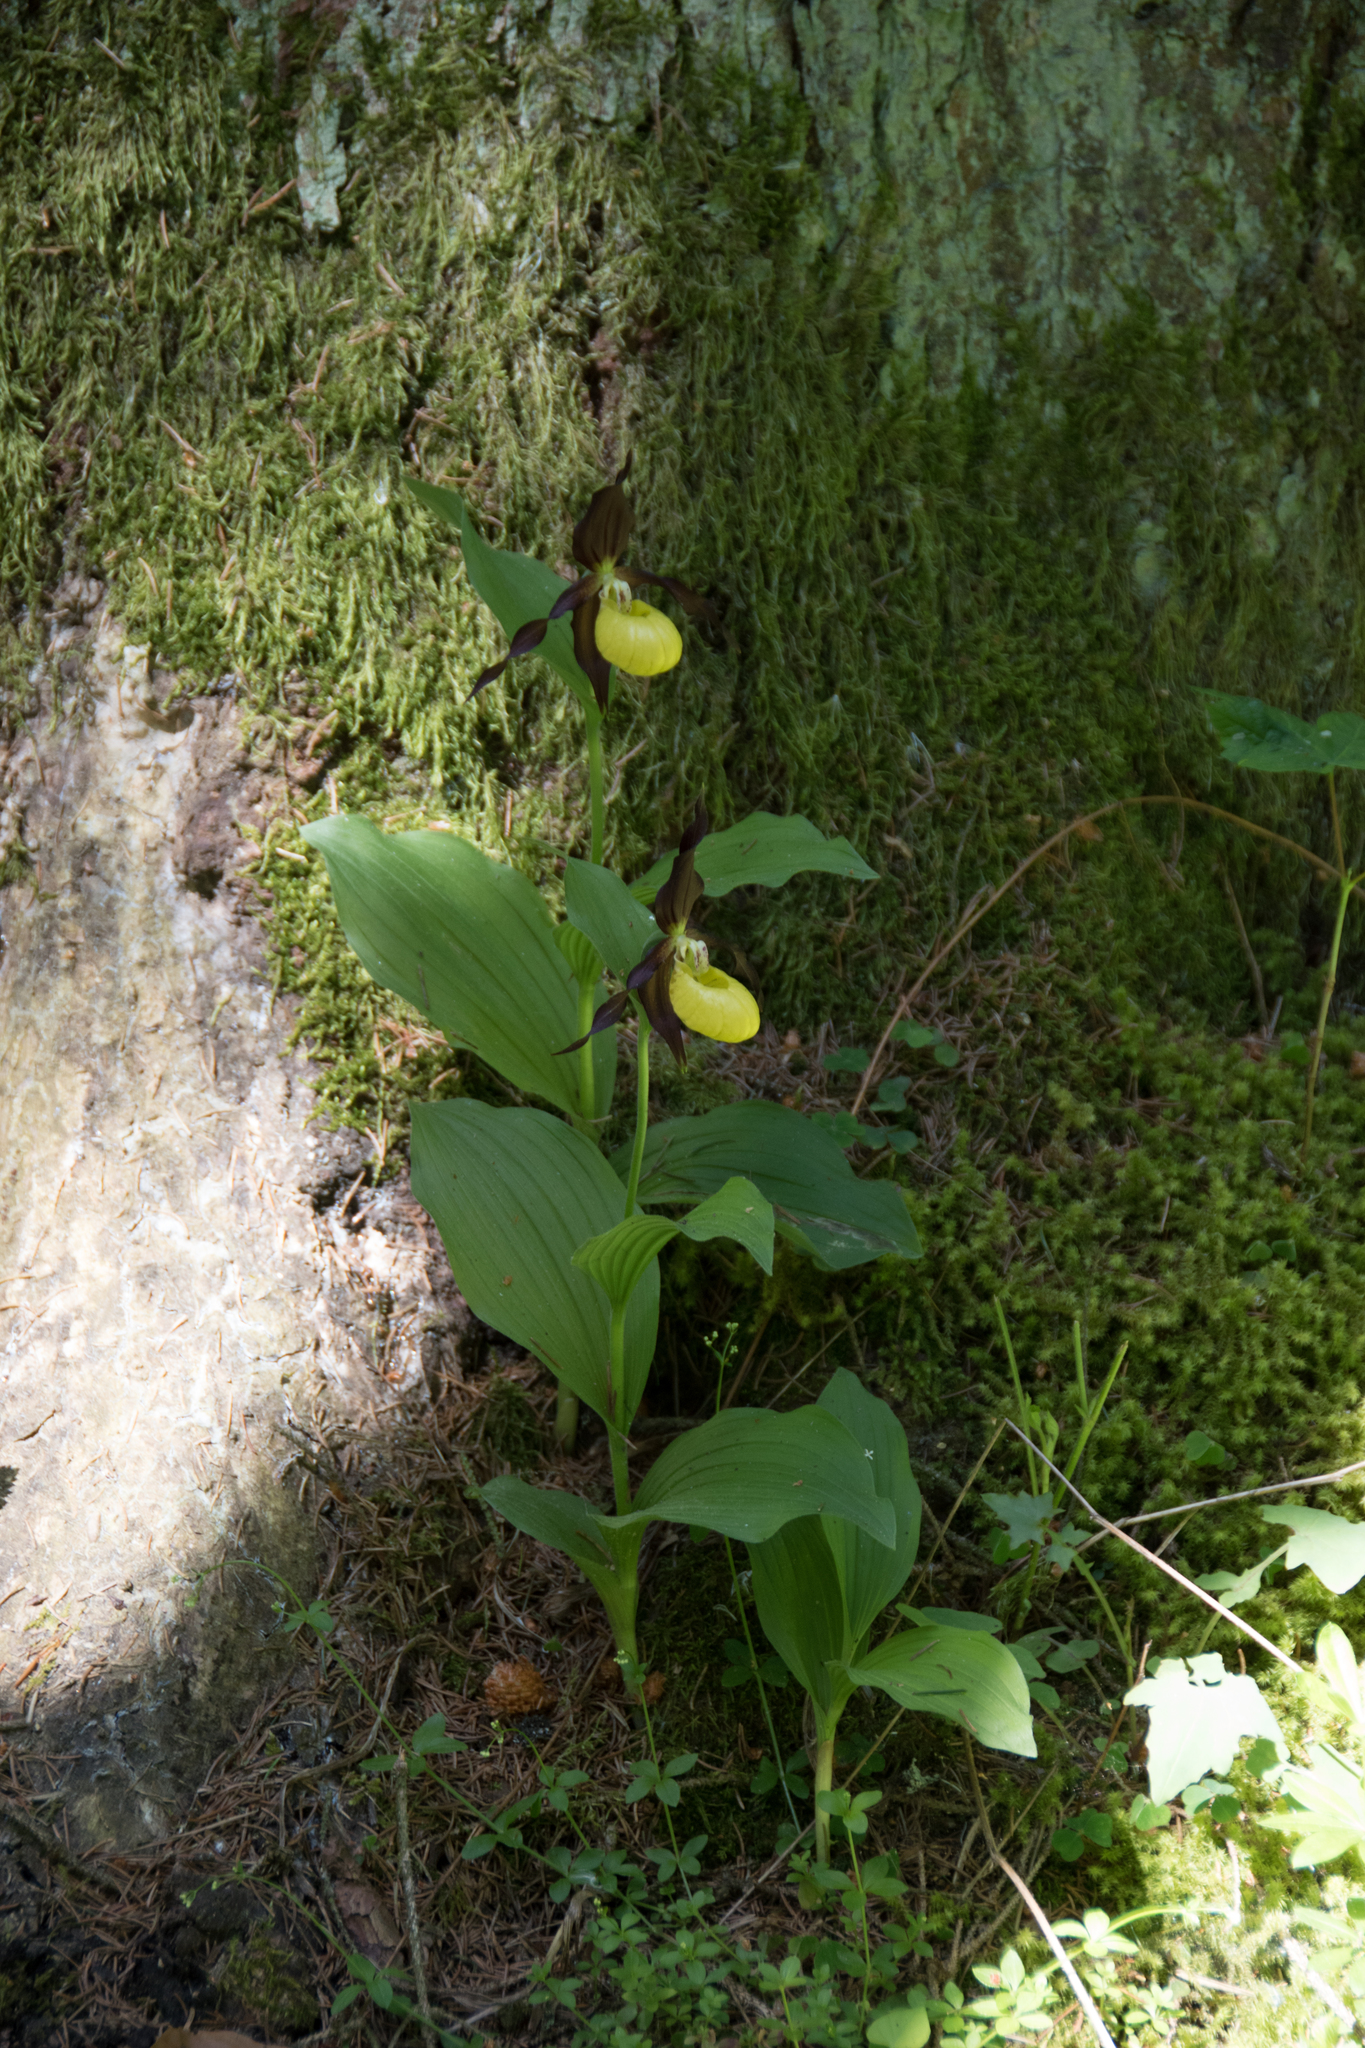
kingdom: Plantae
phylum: Tracheophyta
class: Liliopsida
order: Asparagales
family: Orchidaceae
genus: Cypripedium
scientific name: Cypripedium calceolus
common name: Lady's-slipper
